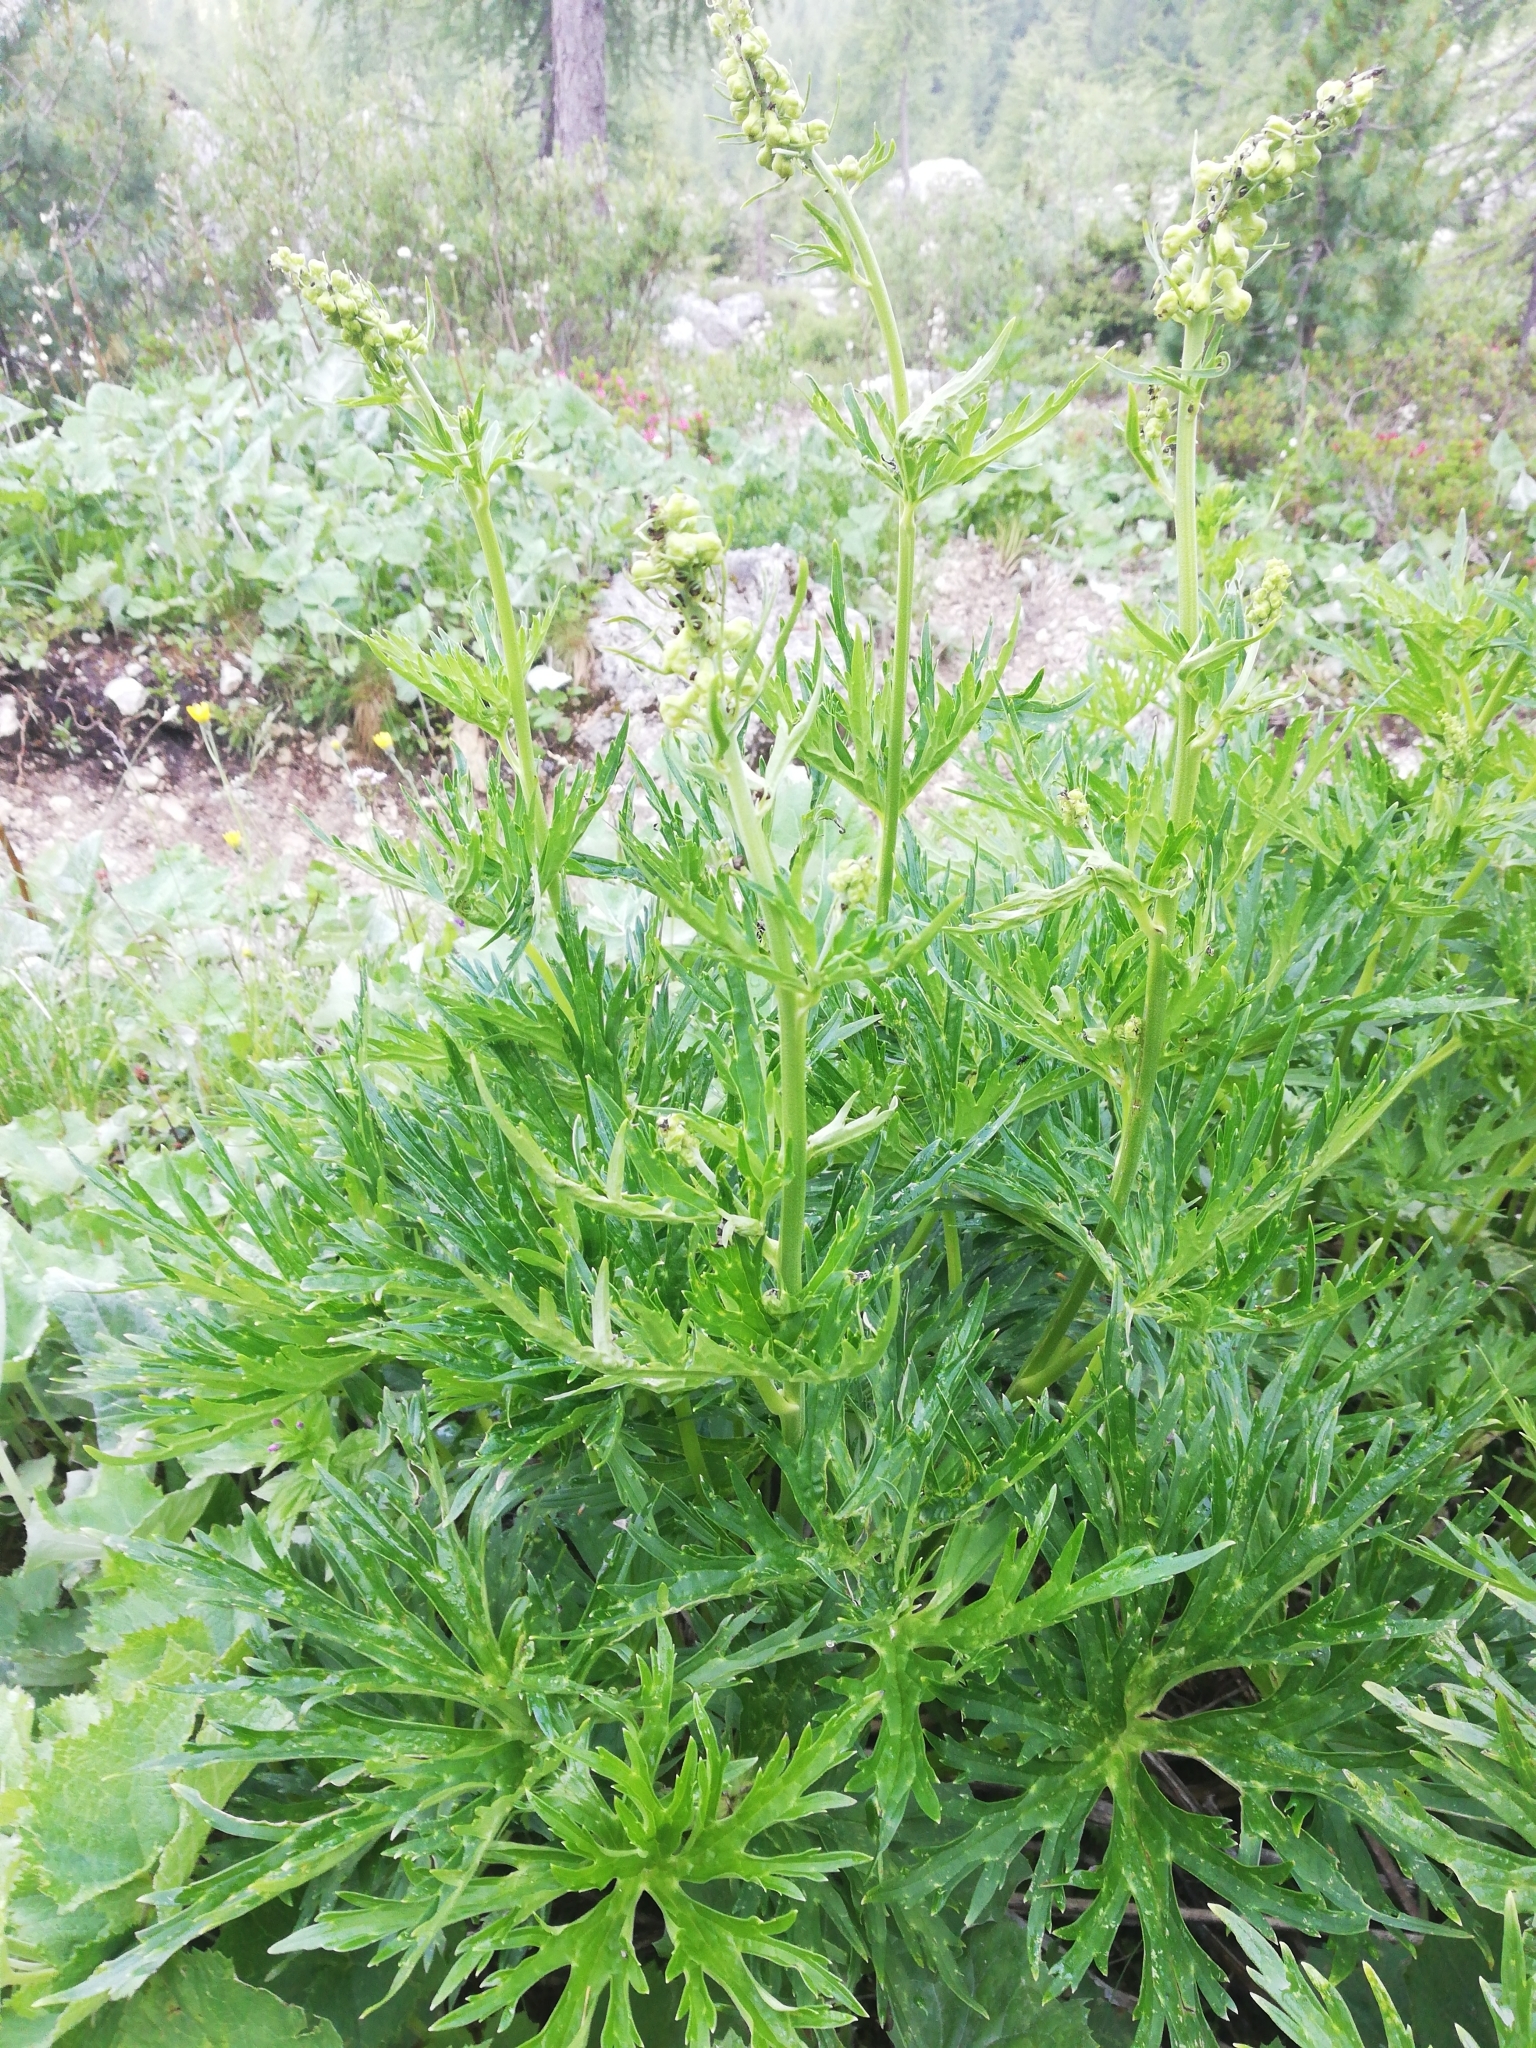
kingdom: Plantae
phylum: Tracheophyta
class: Magnoliopsida
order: Ranunculales
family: Ranunculaceae
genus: Aconitum
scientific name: Aconitum lycoctonum
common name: Wolf's-bane
